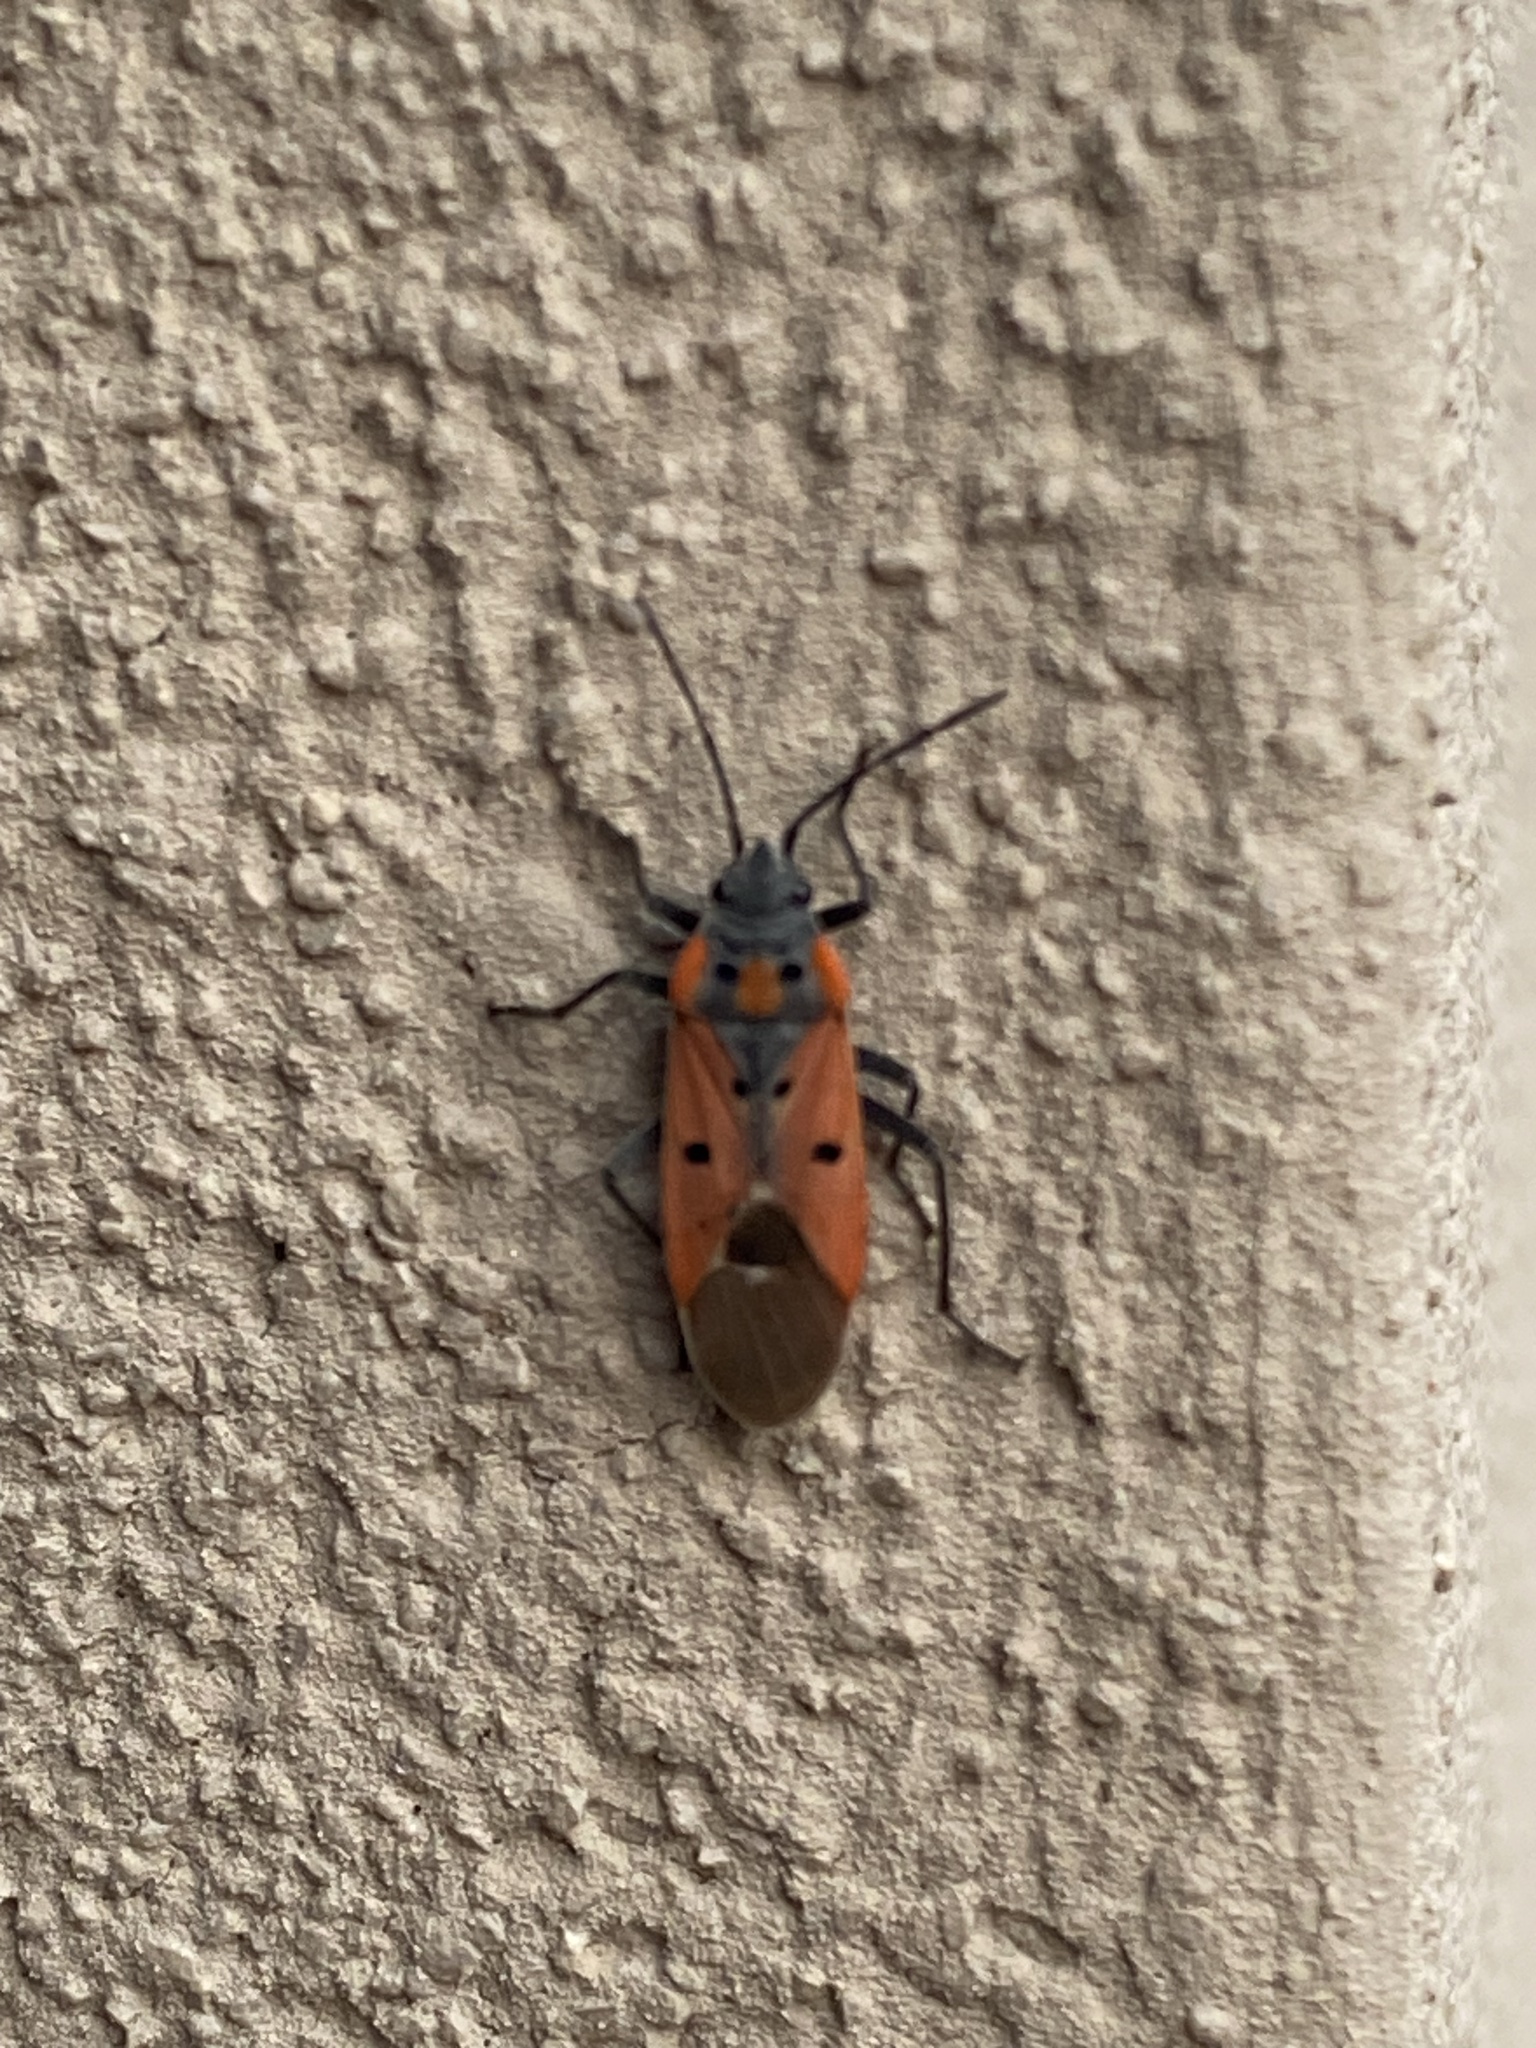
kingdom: Animalia
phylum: Arthropoda
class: Insecta
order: Hemiptera
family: Lygaeidae
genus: Lygaeus
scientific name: Lygaeus creticus
